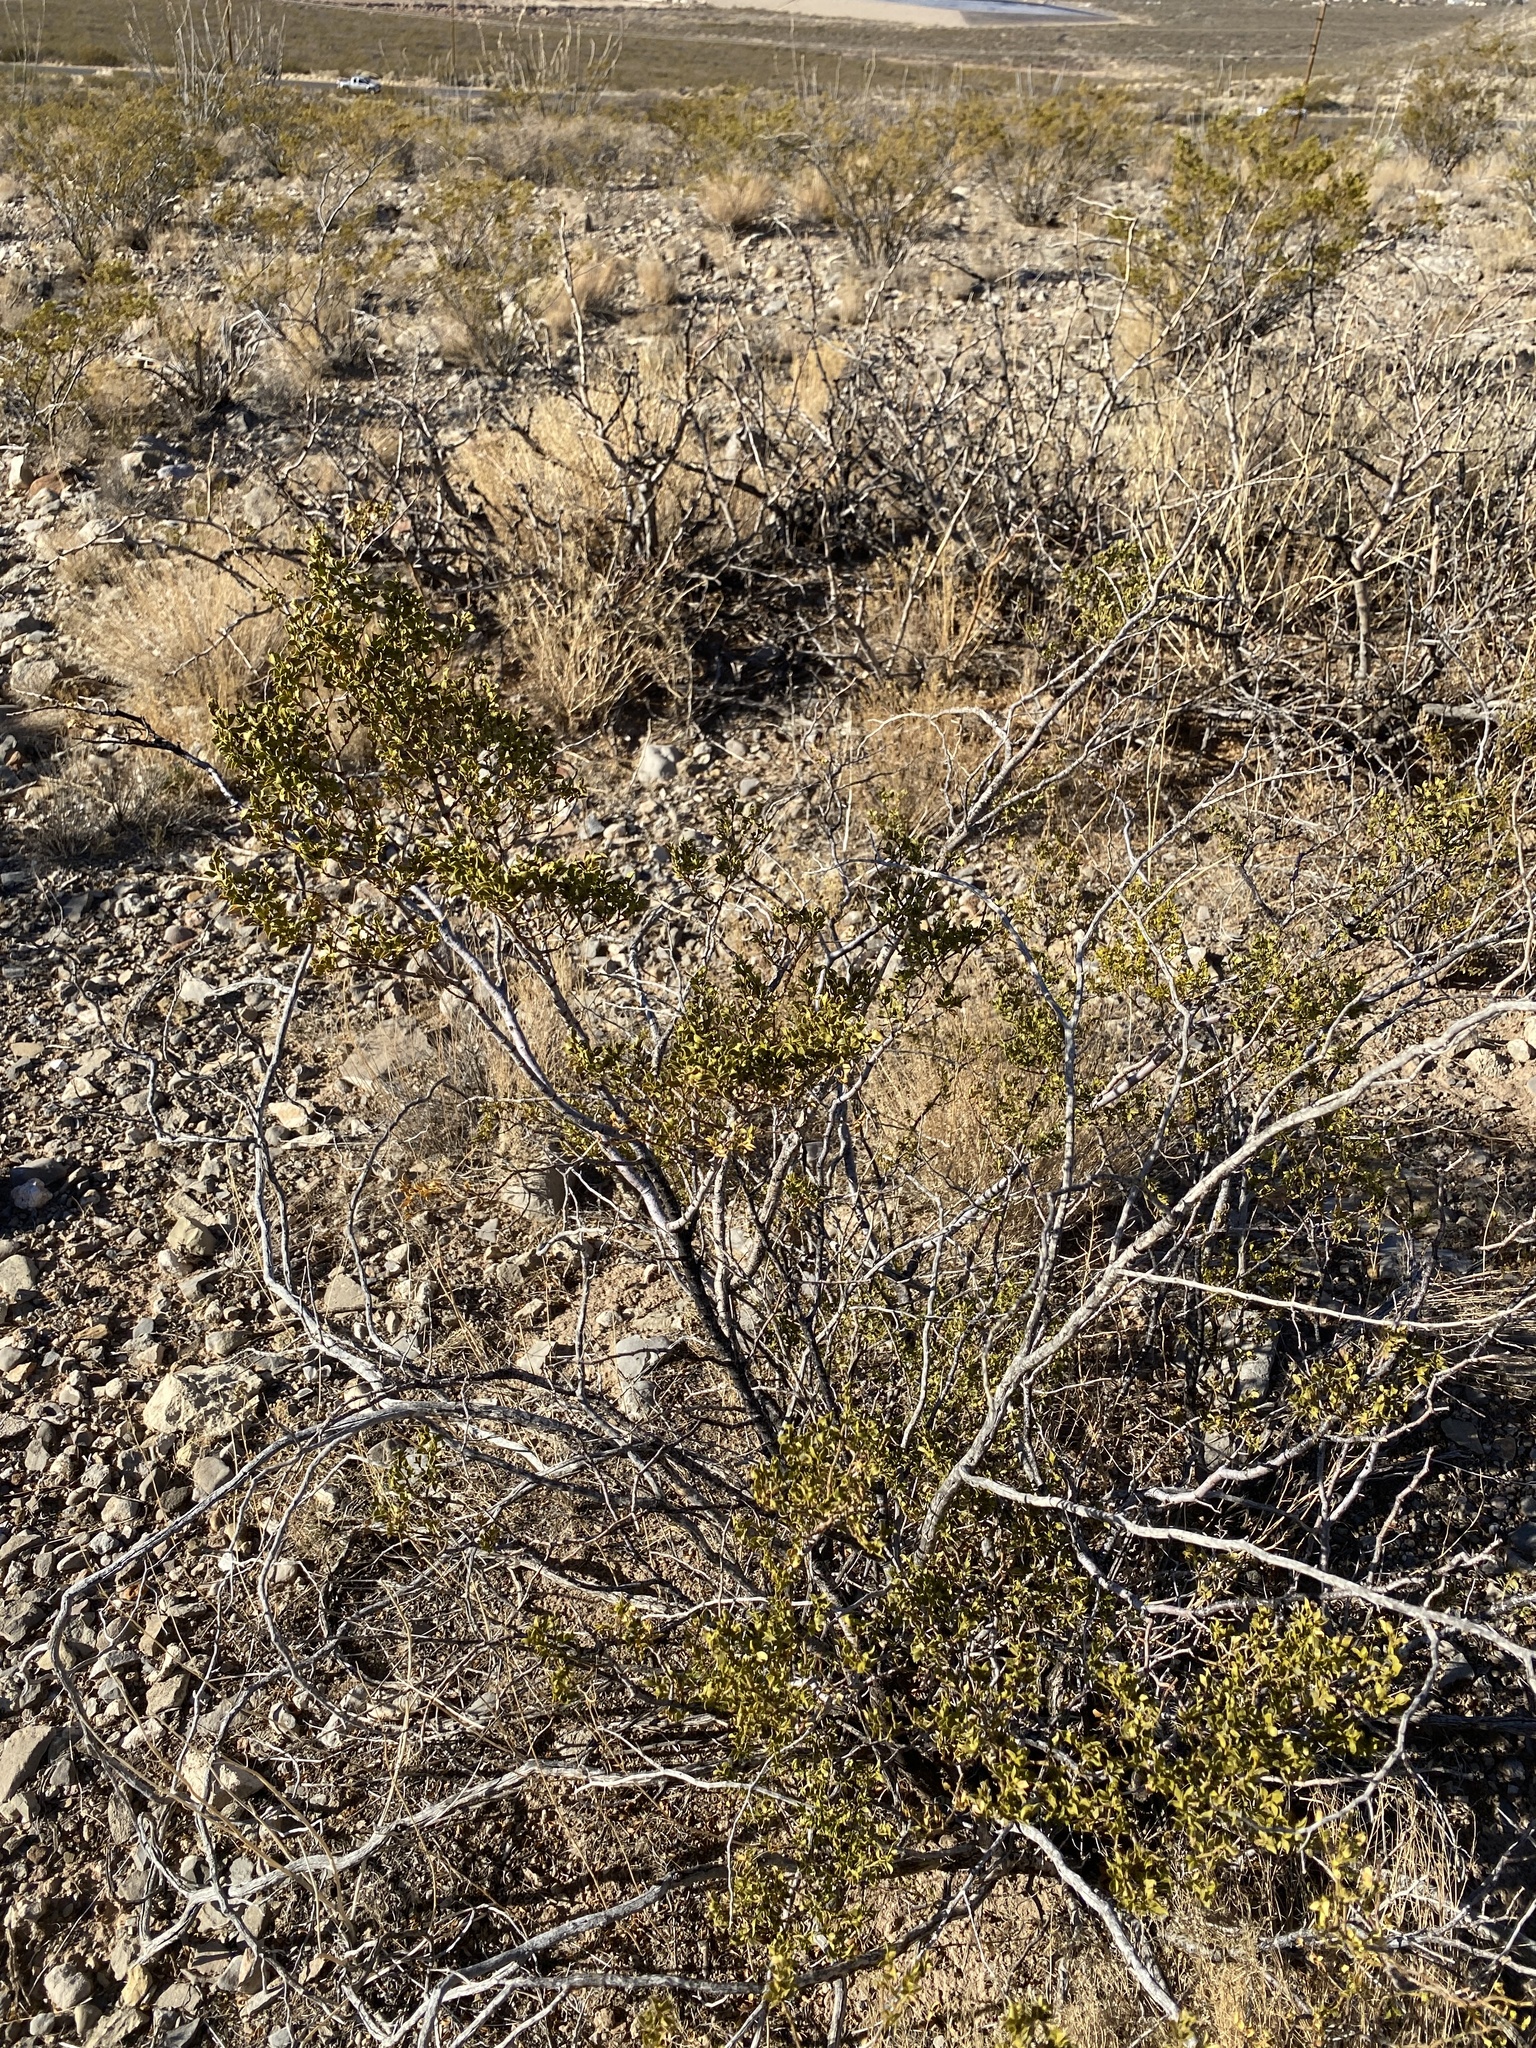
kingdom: Plantae
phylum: Tracheophyta
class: Magnoliopsida
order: Zygophyllales
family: Zygophyllaceae
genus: Larrea
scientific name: Larrea tridentata
